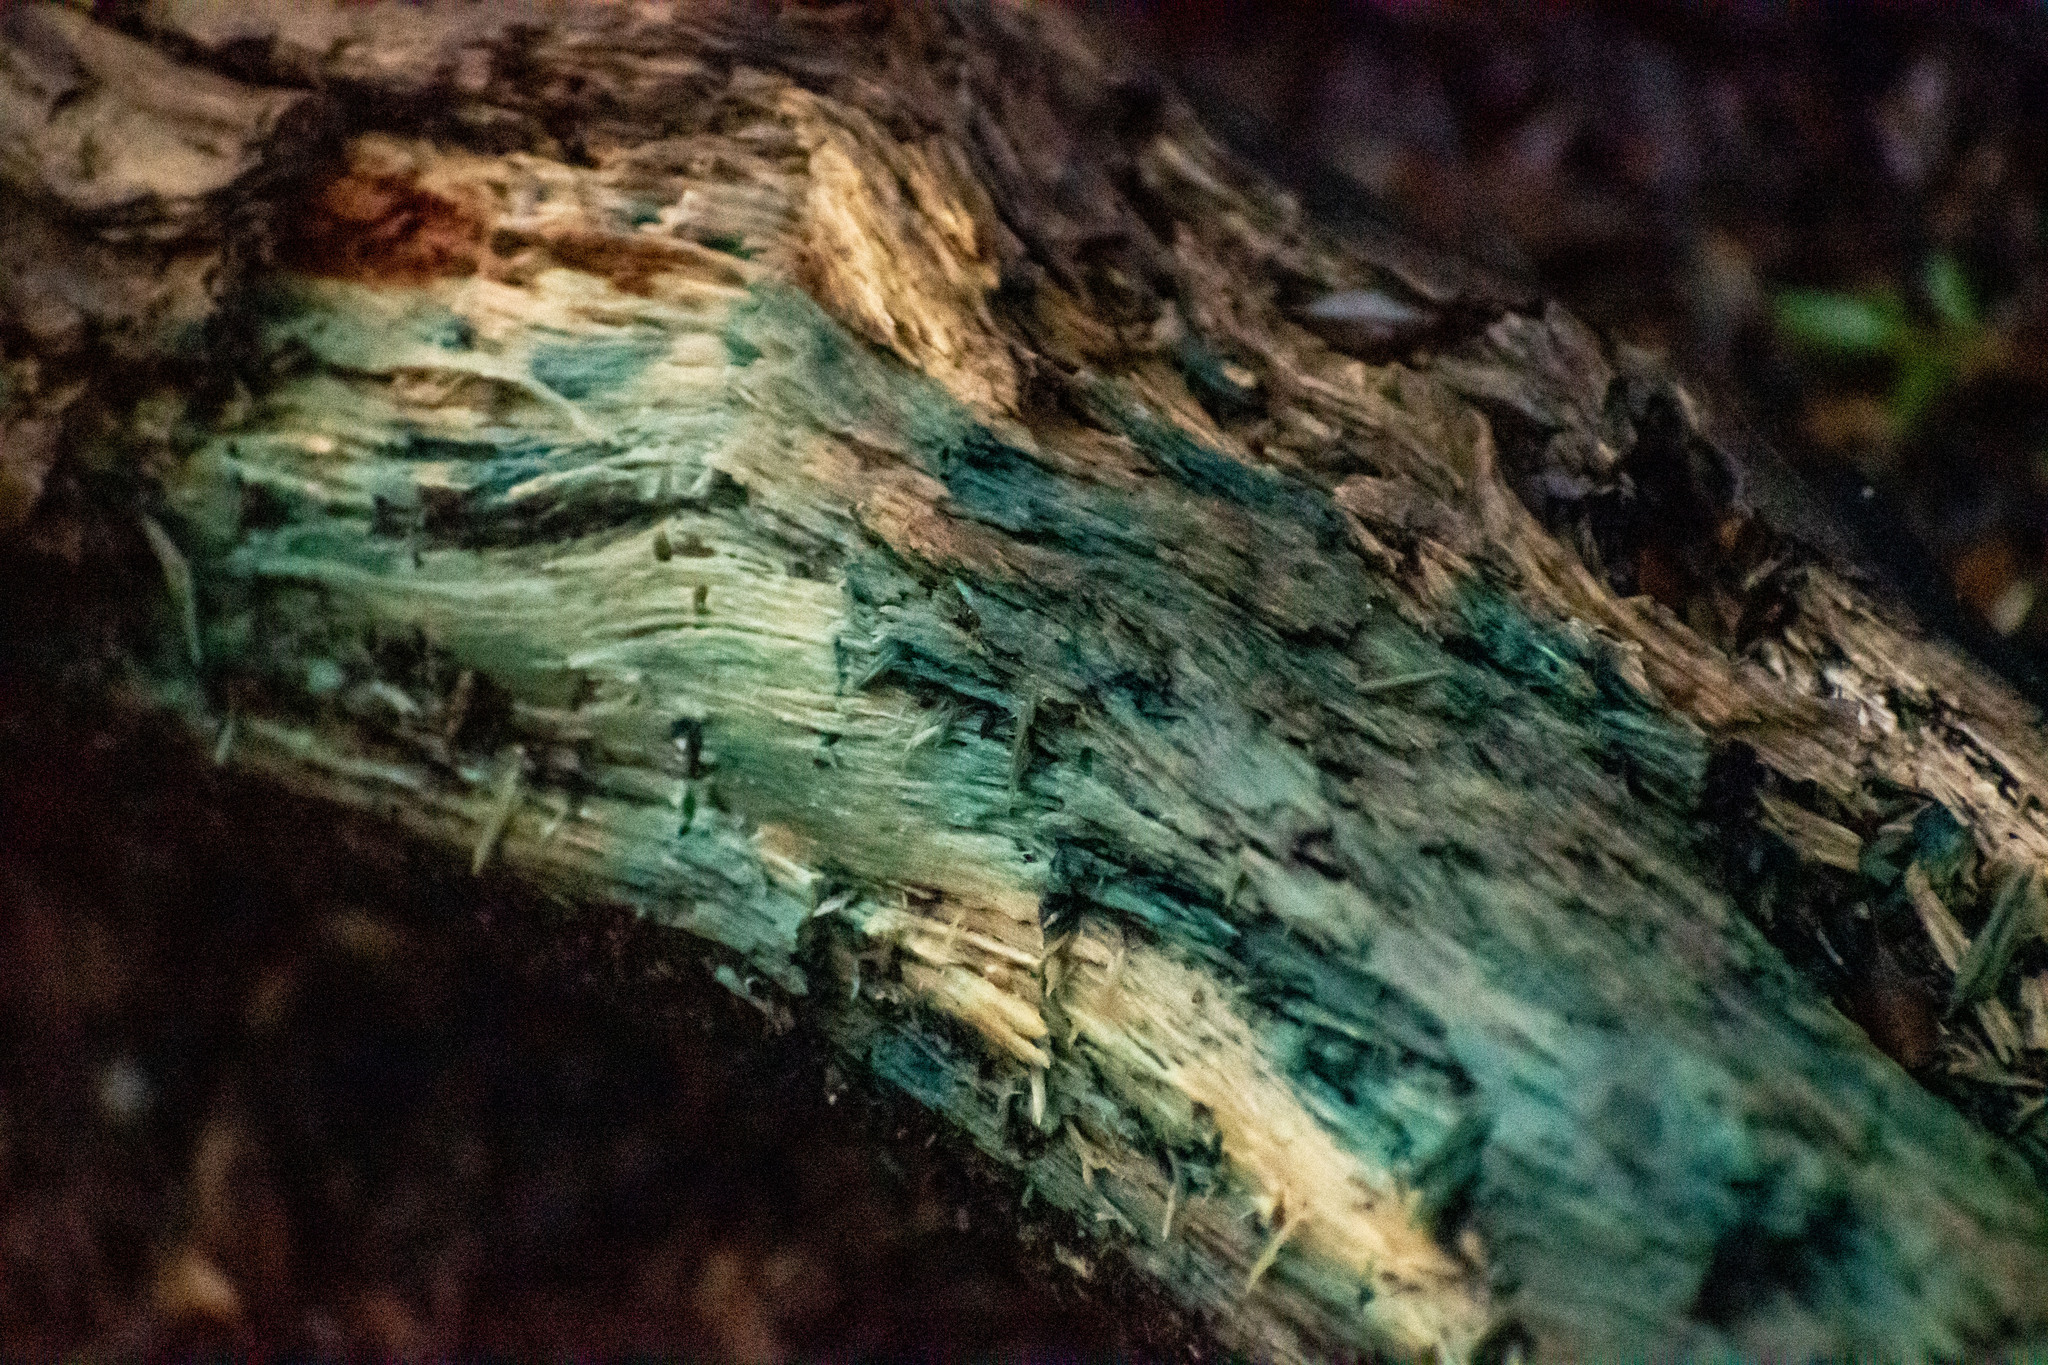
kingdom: Fungi
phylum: Ascomycota
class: Leotiomycetes
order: Helotiales
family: Chlorociboriaceae
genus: Chlorociboria
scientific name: Chlorociboria aeruginosa
